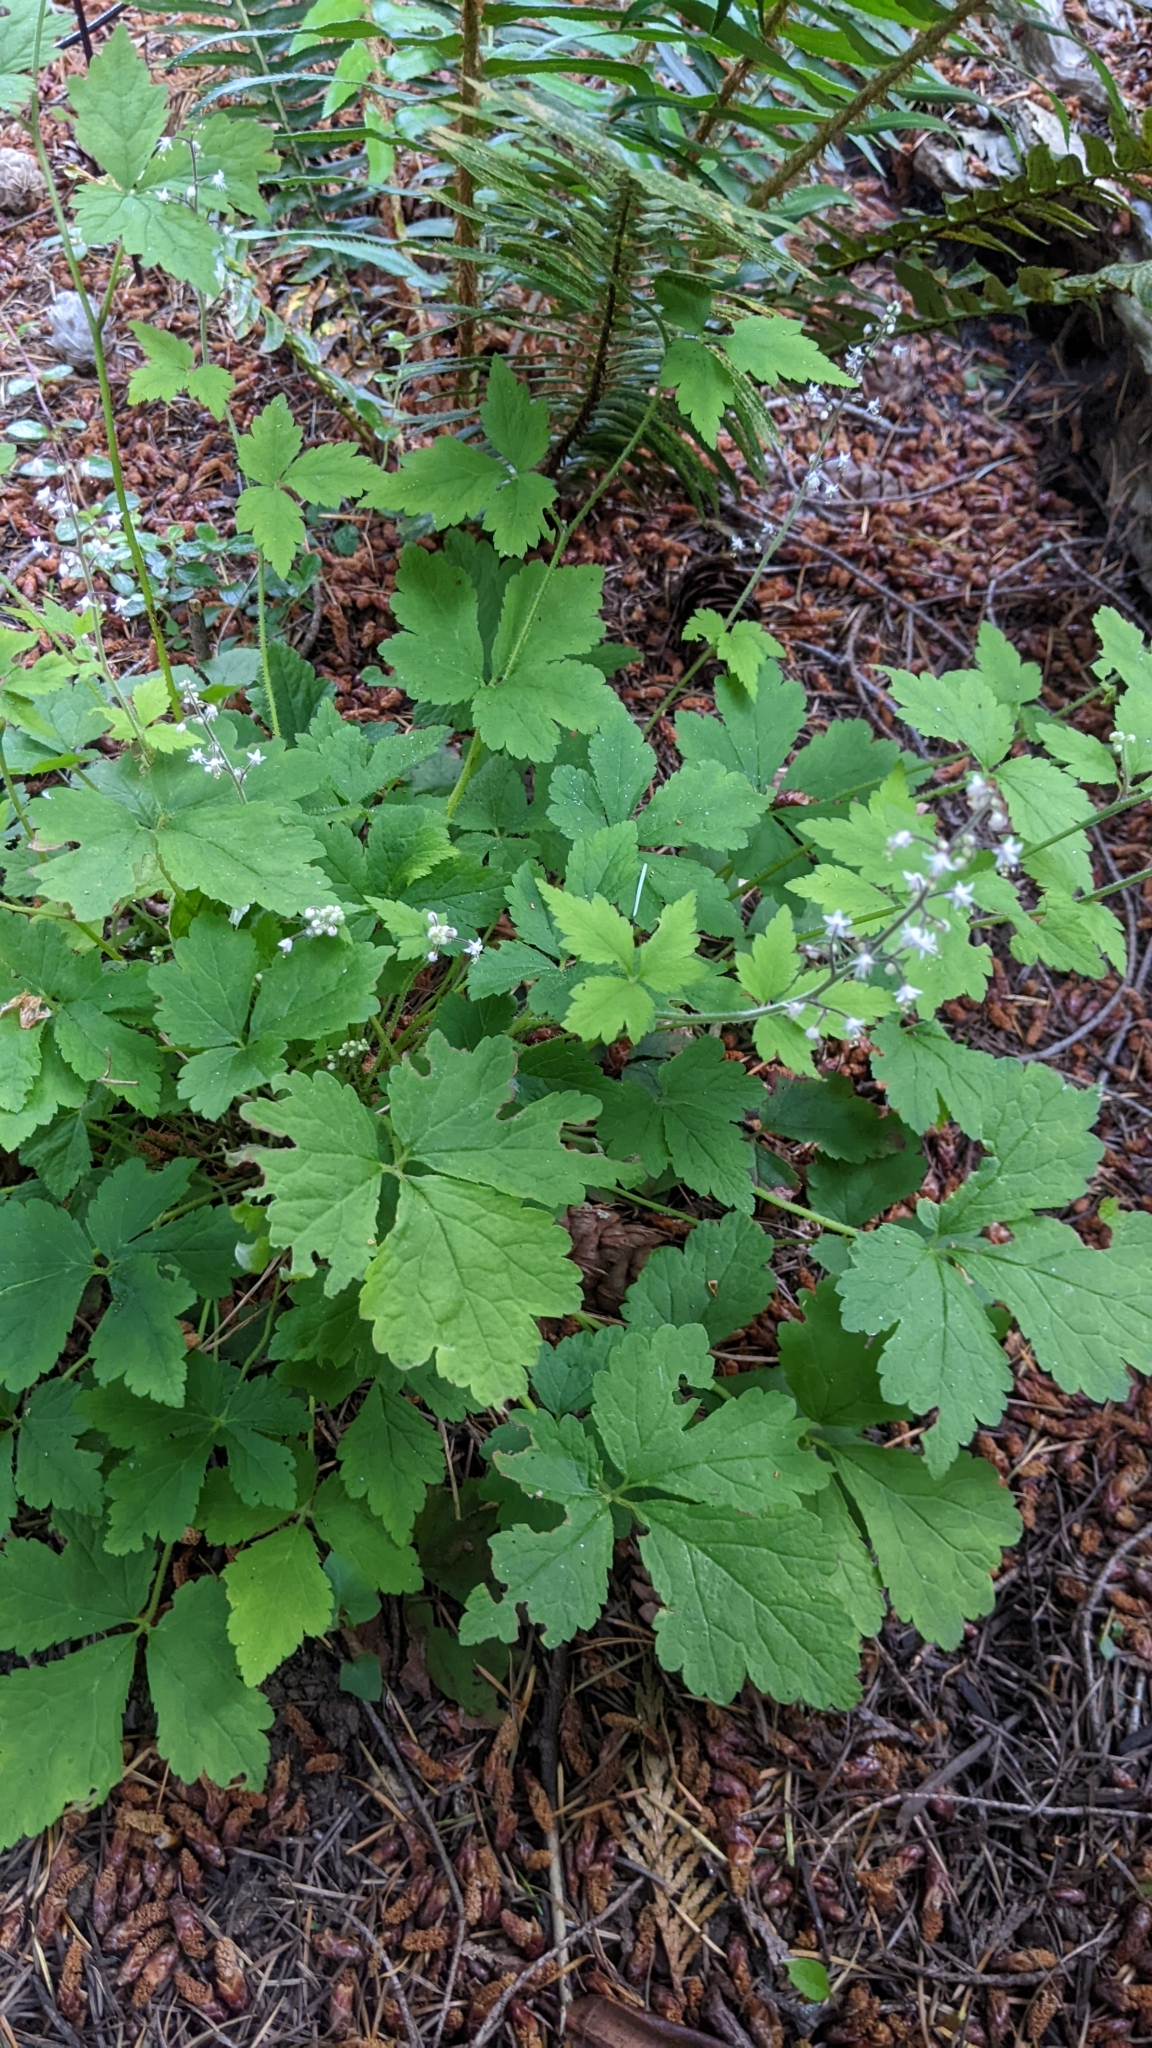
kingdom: Plantae
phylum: Tracheophyta
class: Magnoliopsida
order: Saxifragales
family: Saxifragaceae
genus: Tiarella
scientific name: Tiarella trifoliata
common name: Sugar-scoop
